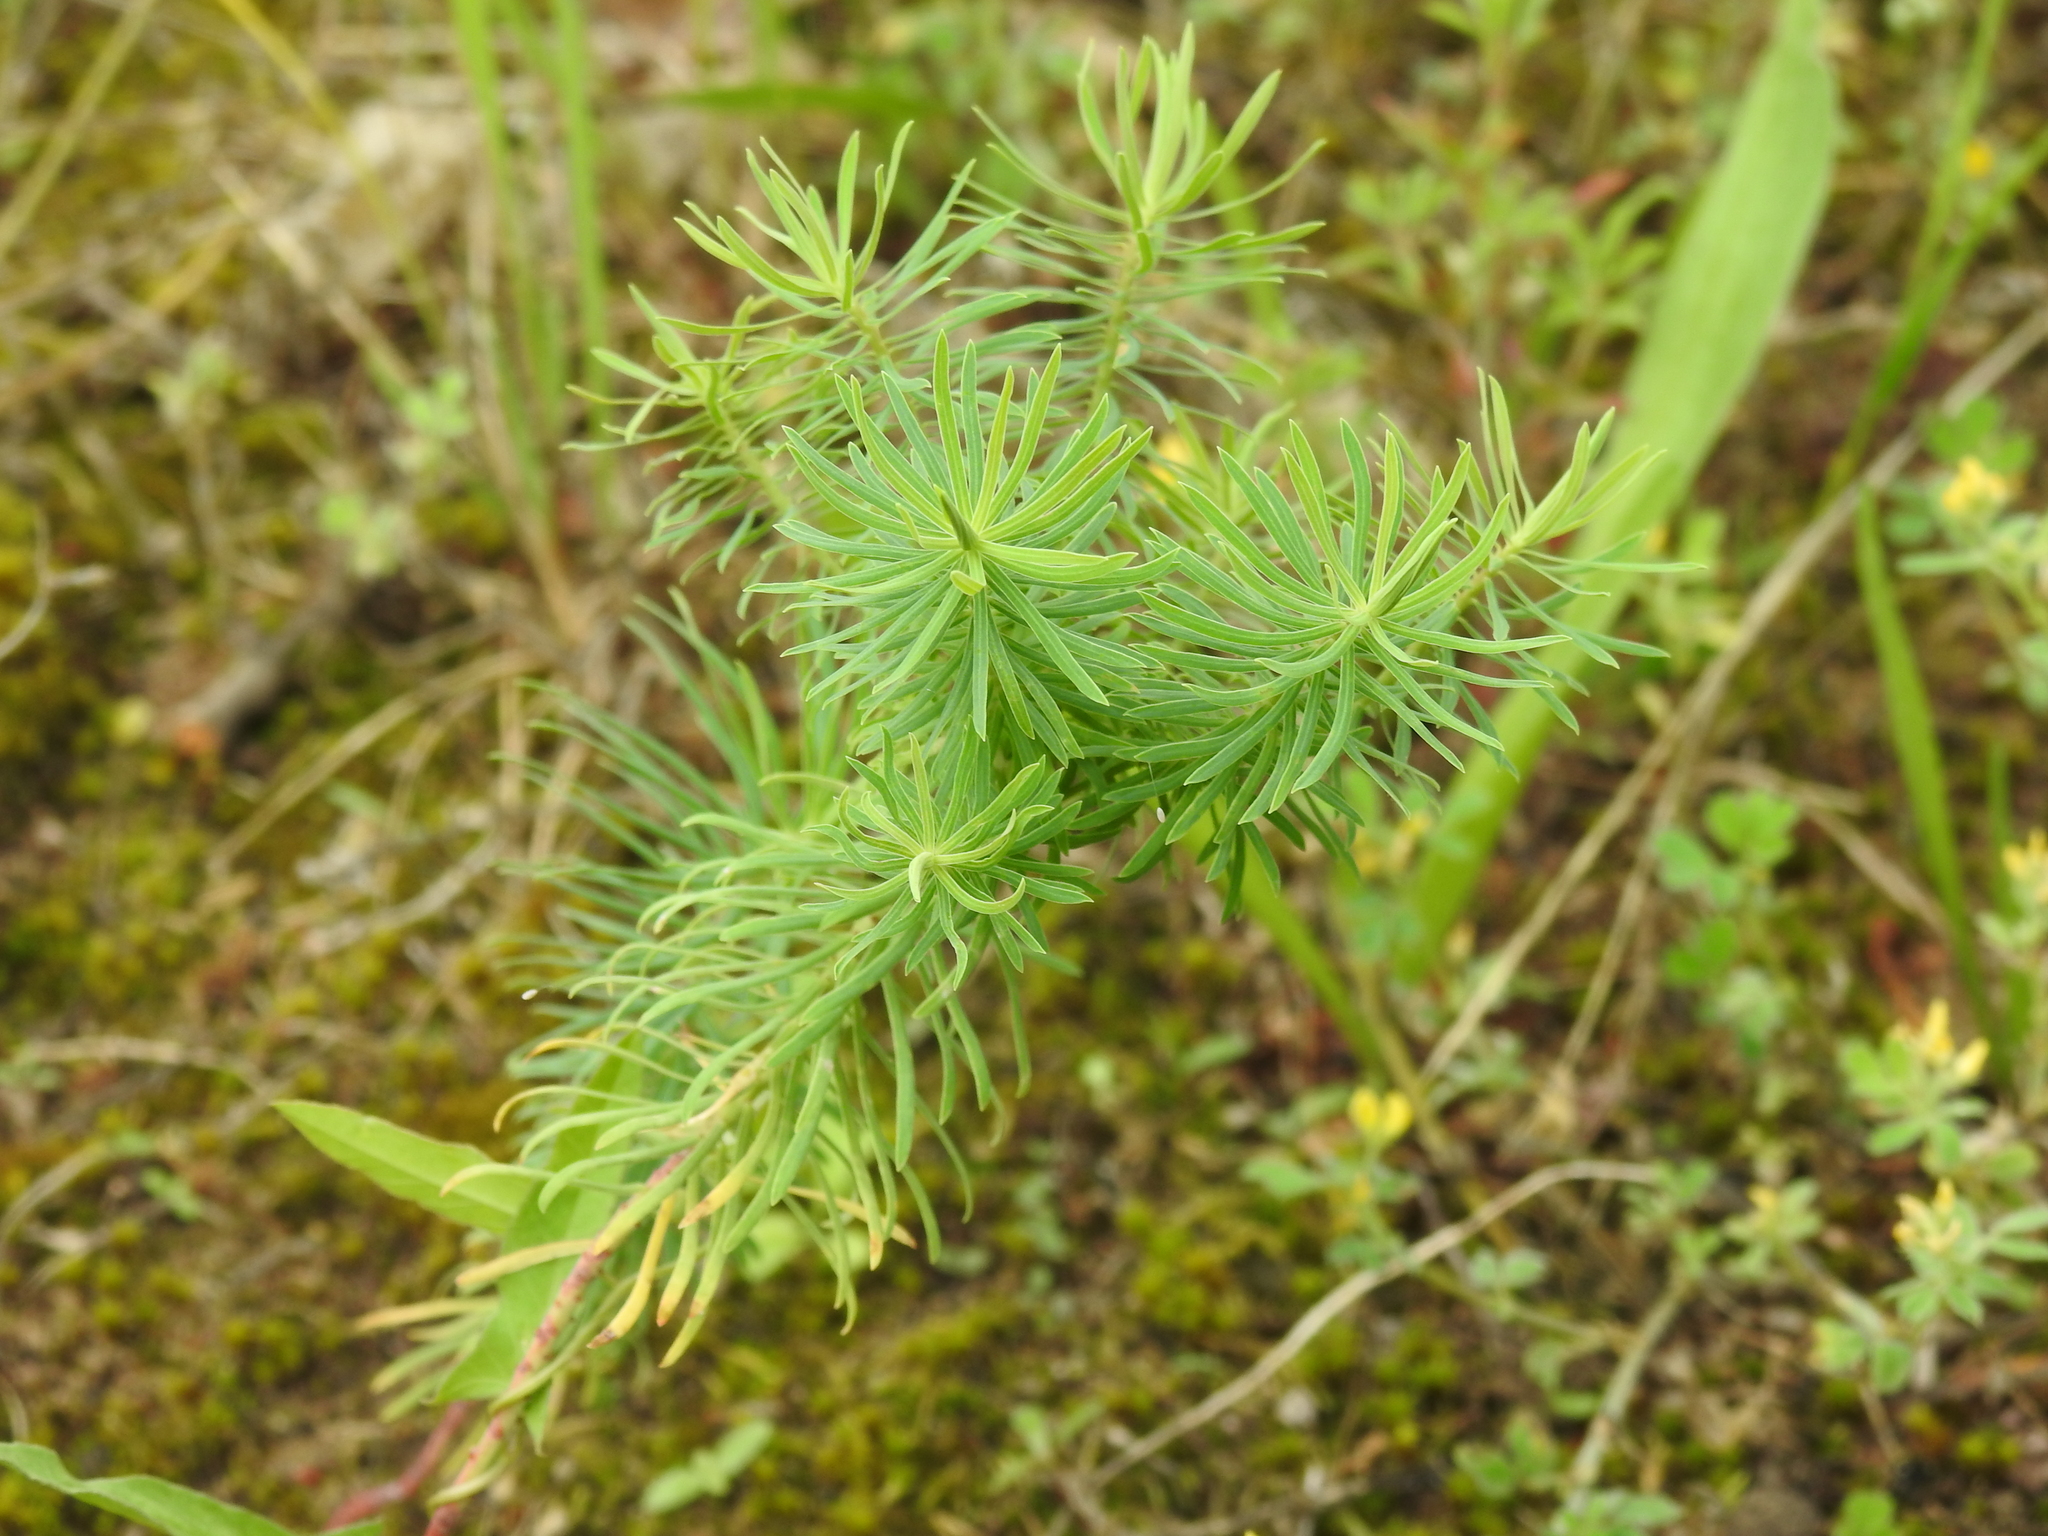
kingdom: Plantae
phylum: Tracheophyta
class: Magnoliopsida
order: Malpighiales
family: Euphorbiaceae
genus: Euphorbia
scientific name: Euphorbia cyparissias
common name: Cypress spurge
